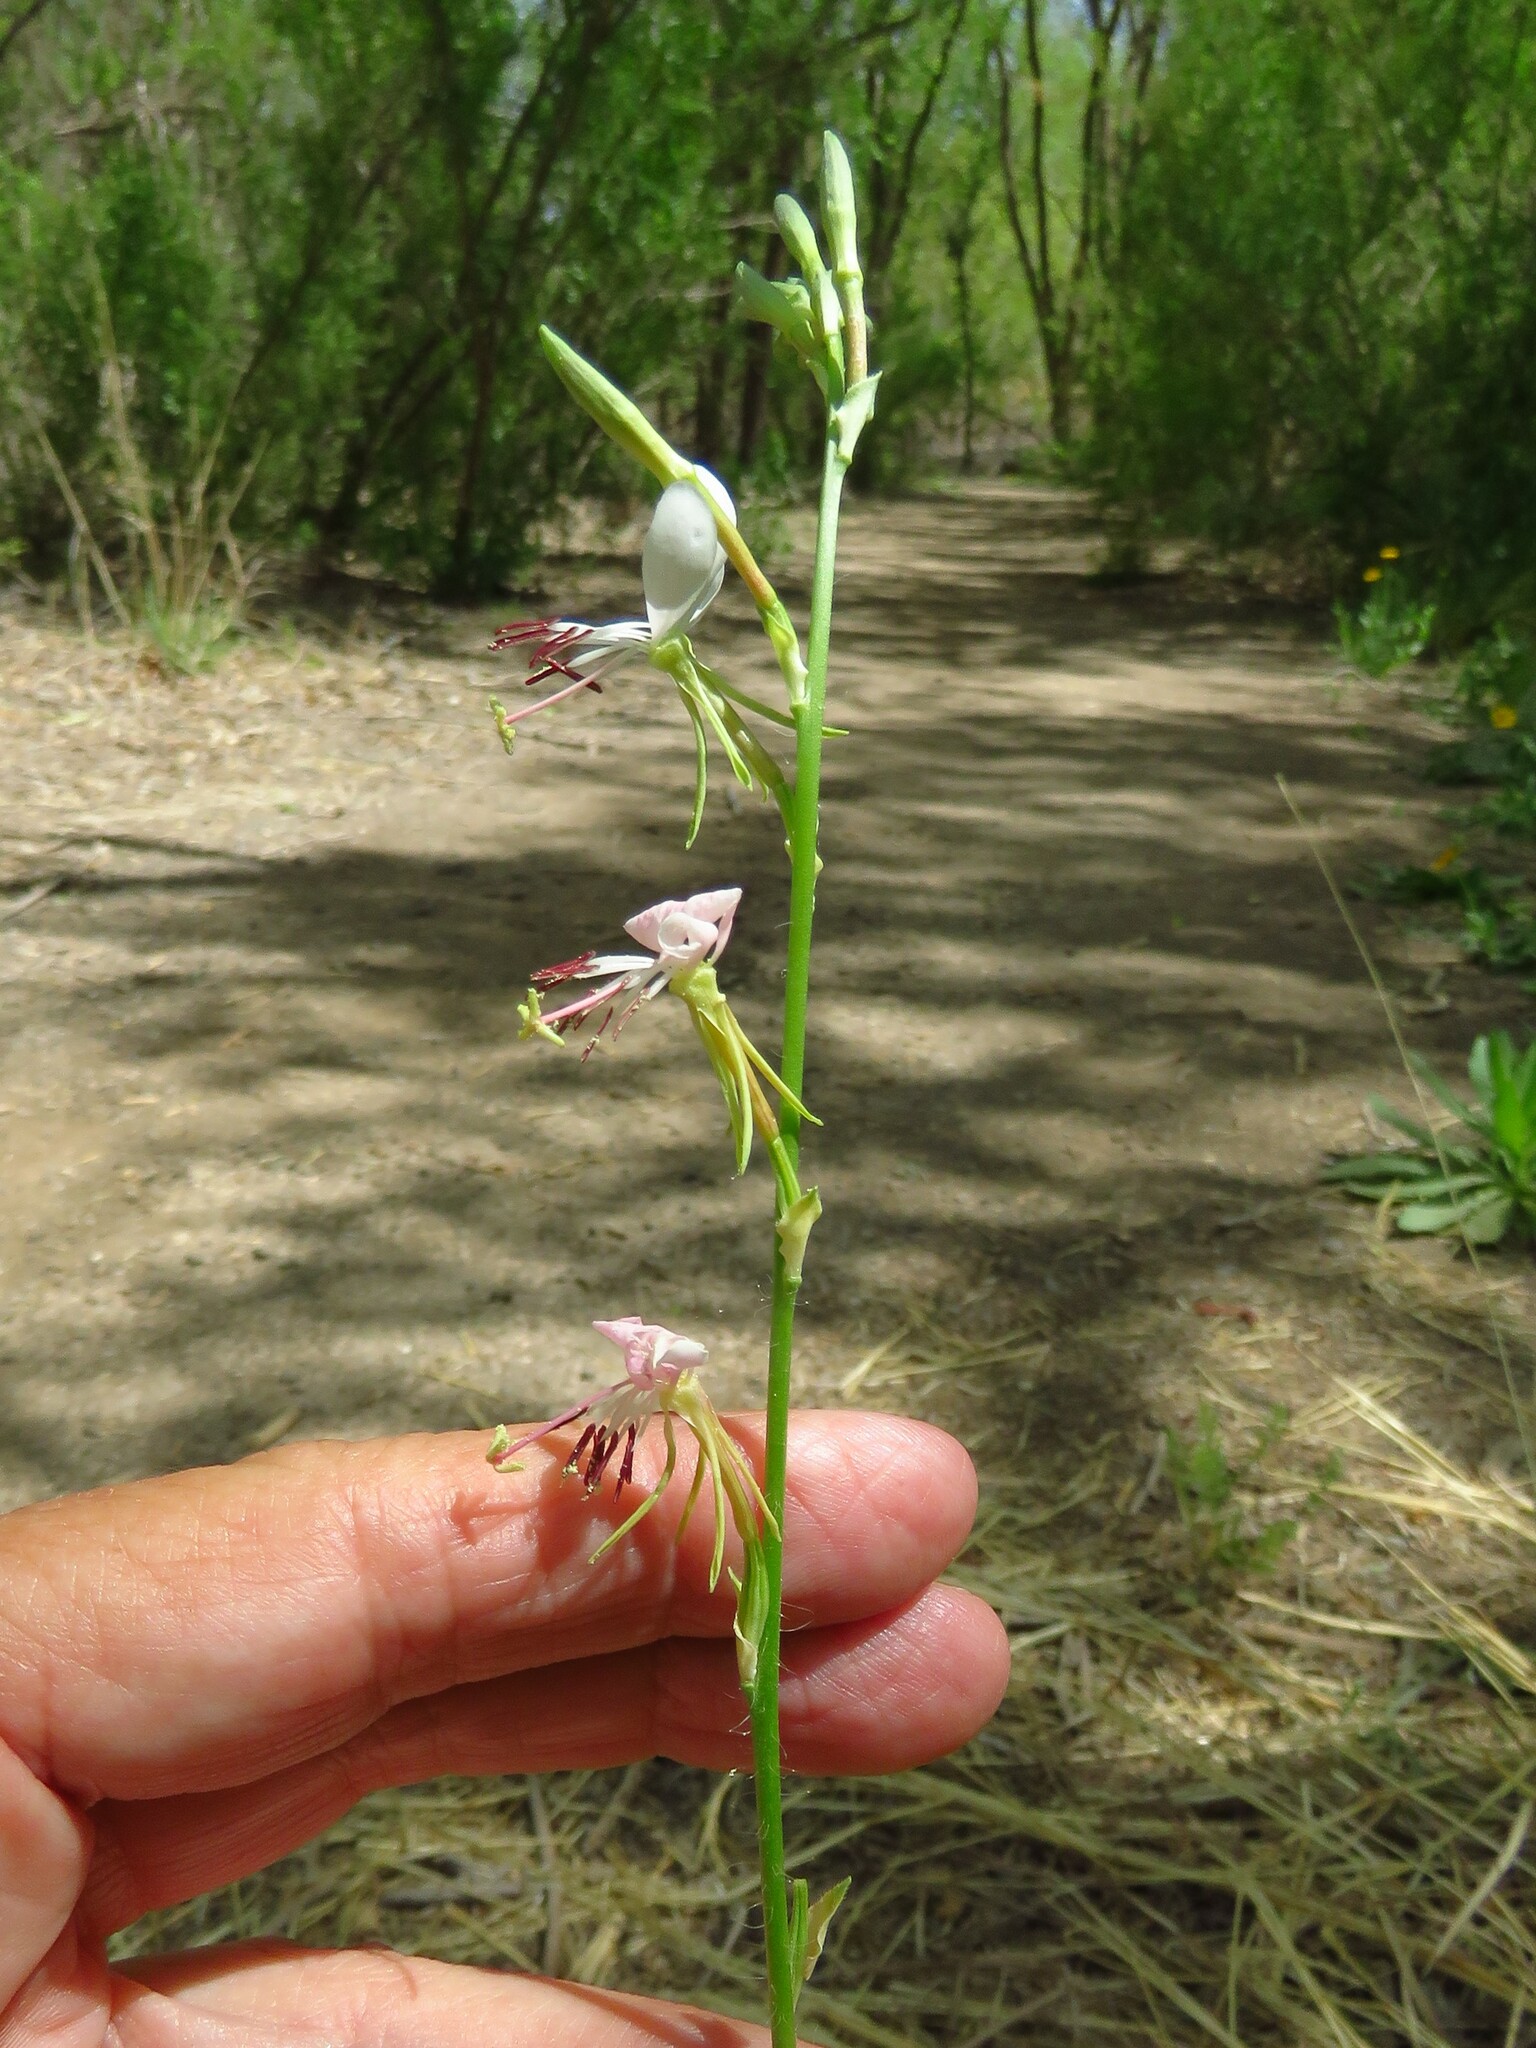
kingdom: Plantae
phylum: Tracheophyta
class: Magnoliopsida
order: Myrtales
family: Onagraceae
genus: Oenothera
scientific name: Oenothera suffulta
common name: Kisses
